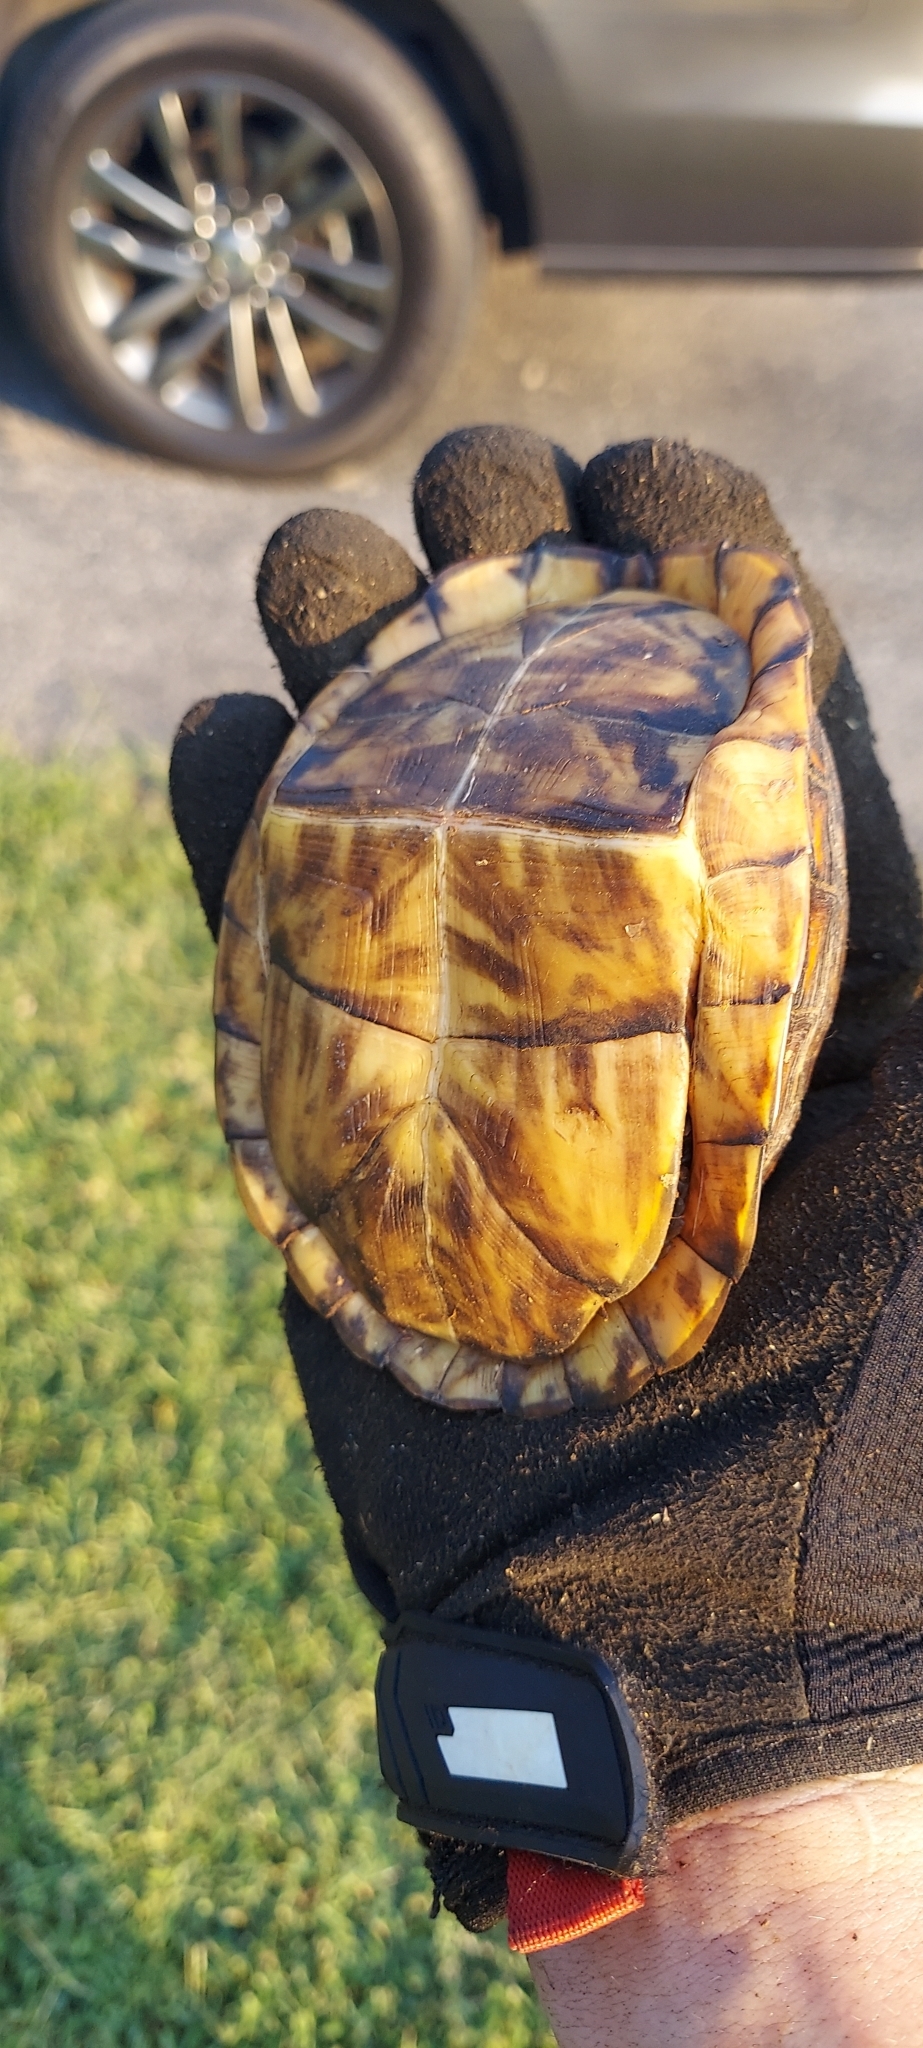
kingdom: Animalia
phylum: Chordata
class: Testudines
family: Emydidae
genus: Terrapene
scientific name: Terrapene carolina
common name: Common box turtle
